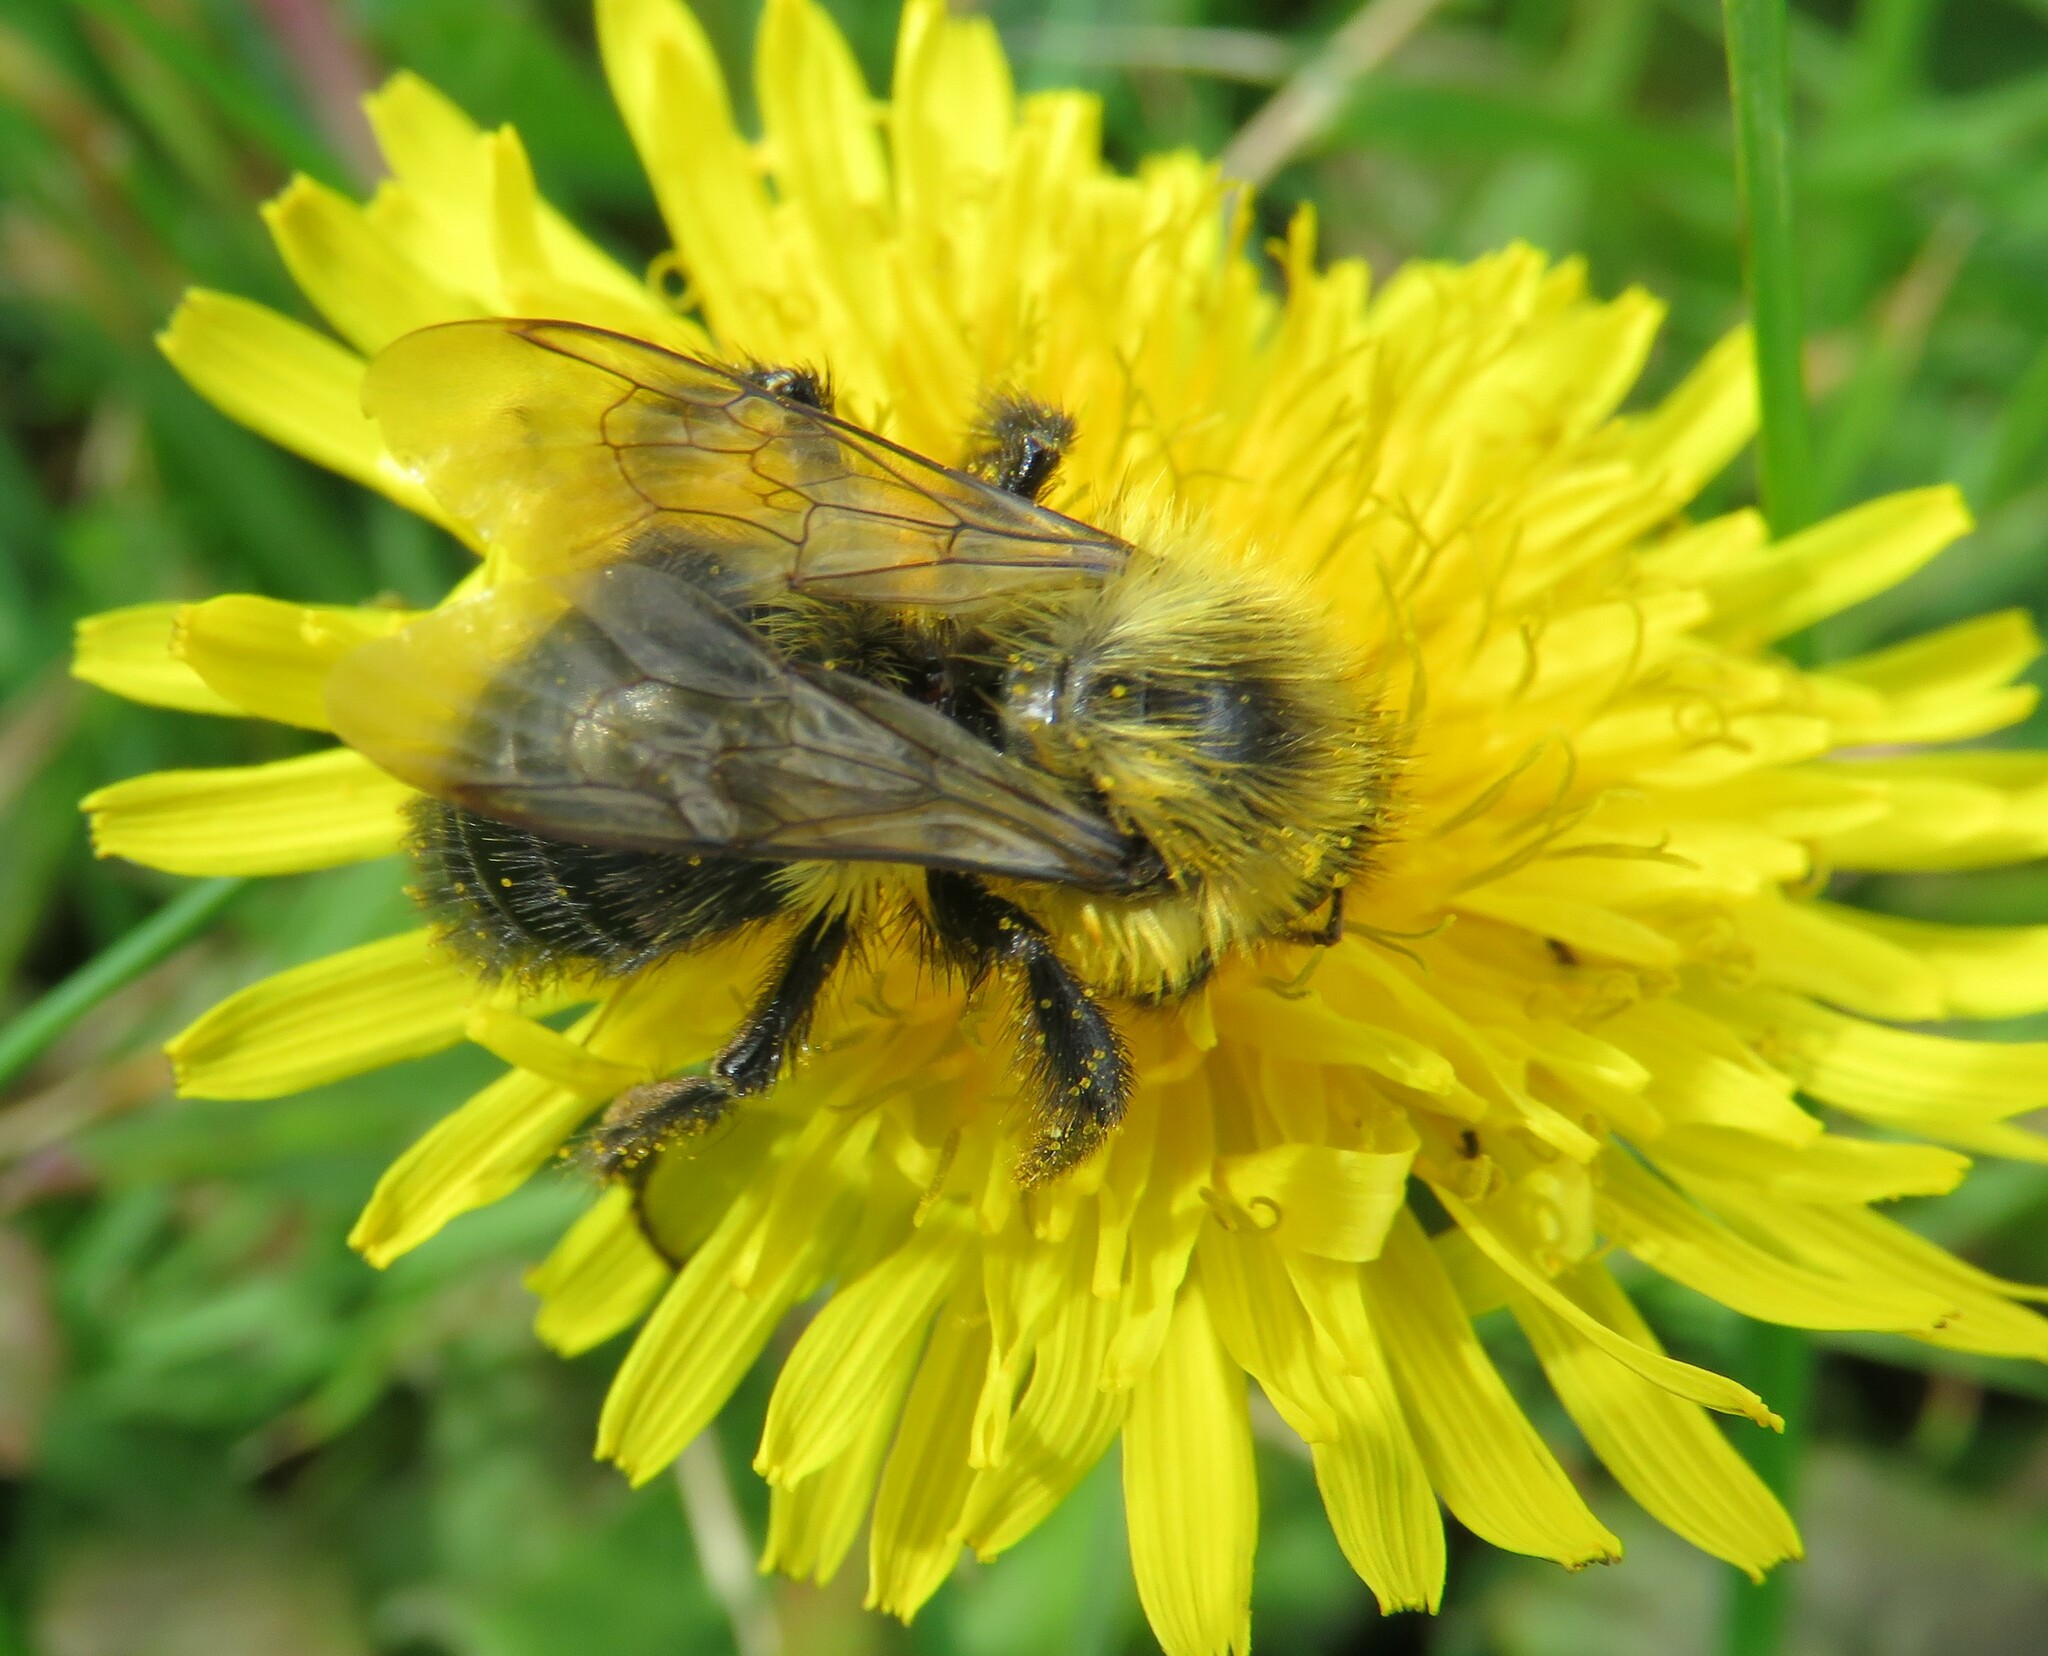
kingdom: Animalia
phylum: Arthropoda
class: Insecta
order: Hymenoptera
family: Apidae
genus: Bombus
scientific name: Bombus impatiens
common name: Common eastern bumble bee
